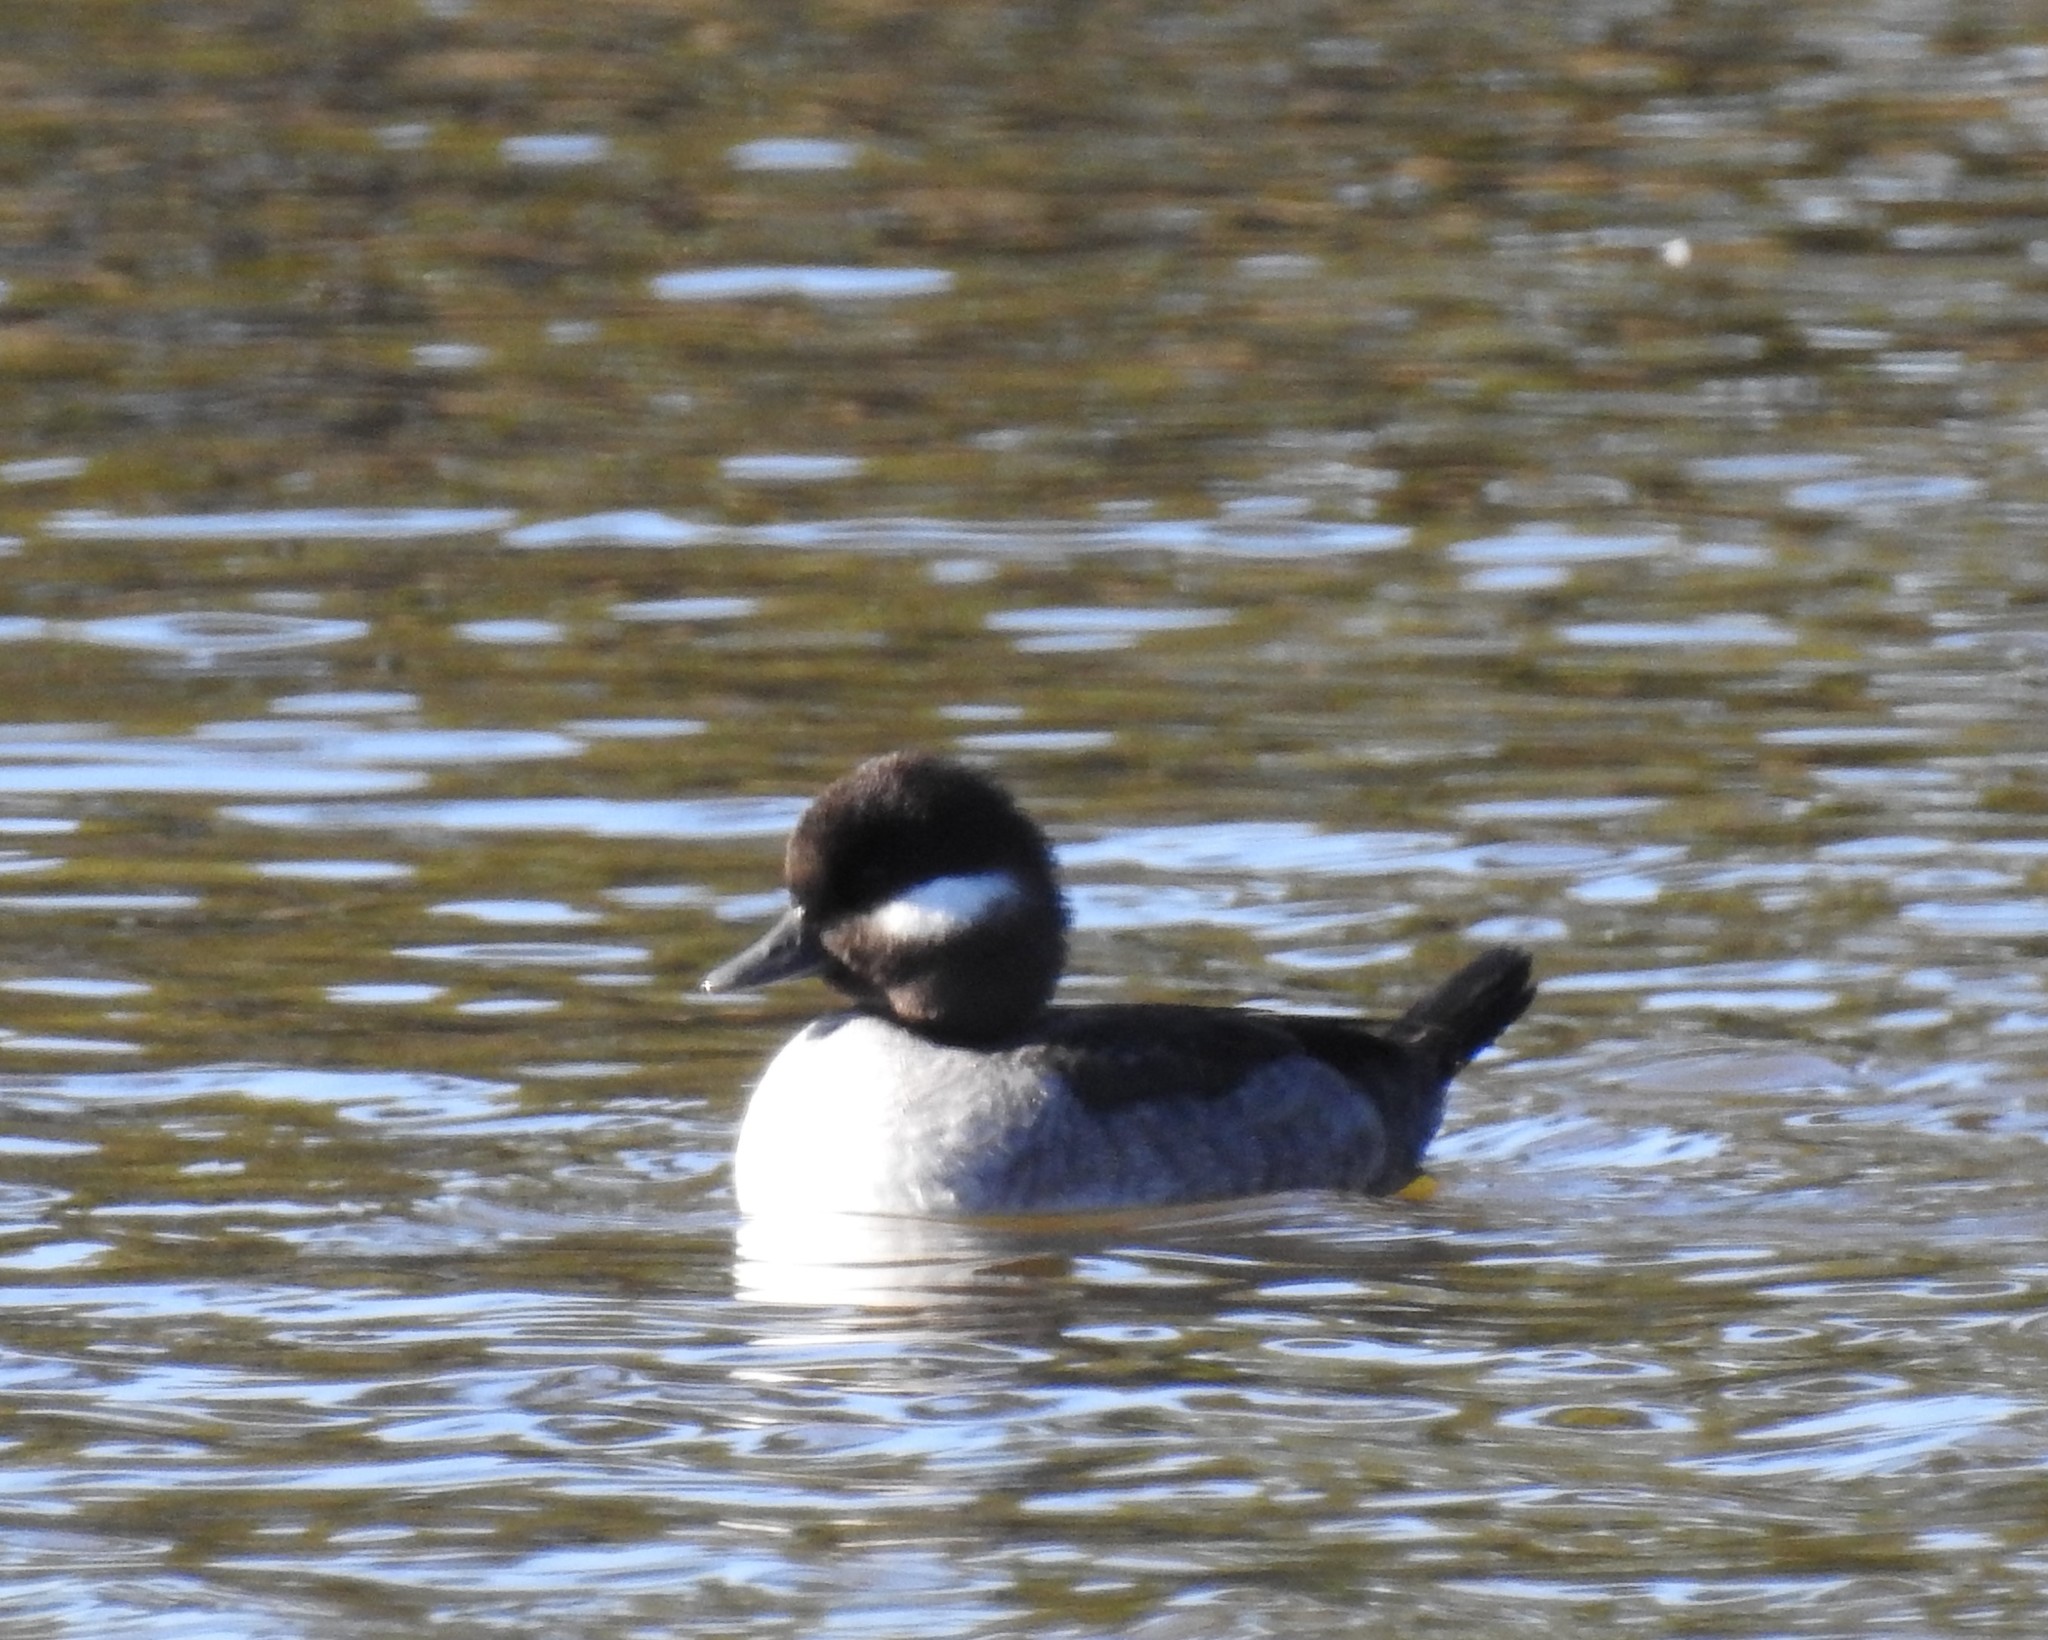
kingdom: Animalia
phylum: Chordata
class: Aves
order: Anseriformes
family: Anatidae
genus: Bucephala
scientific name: Bucephala albeola
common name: Bufflehead
